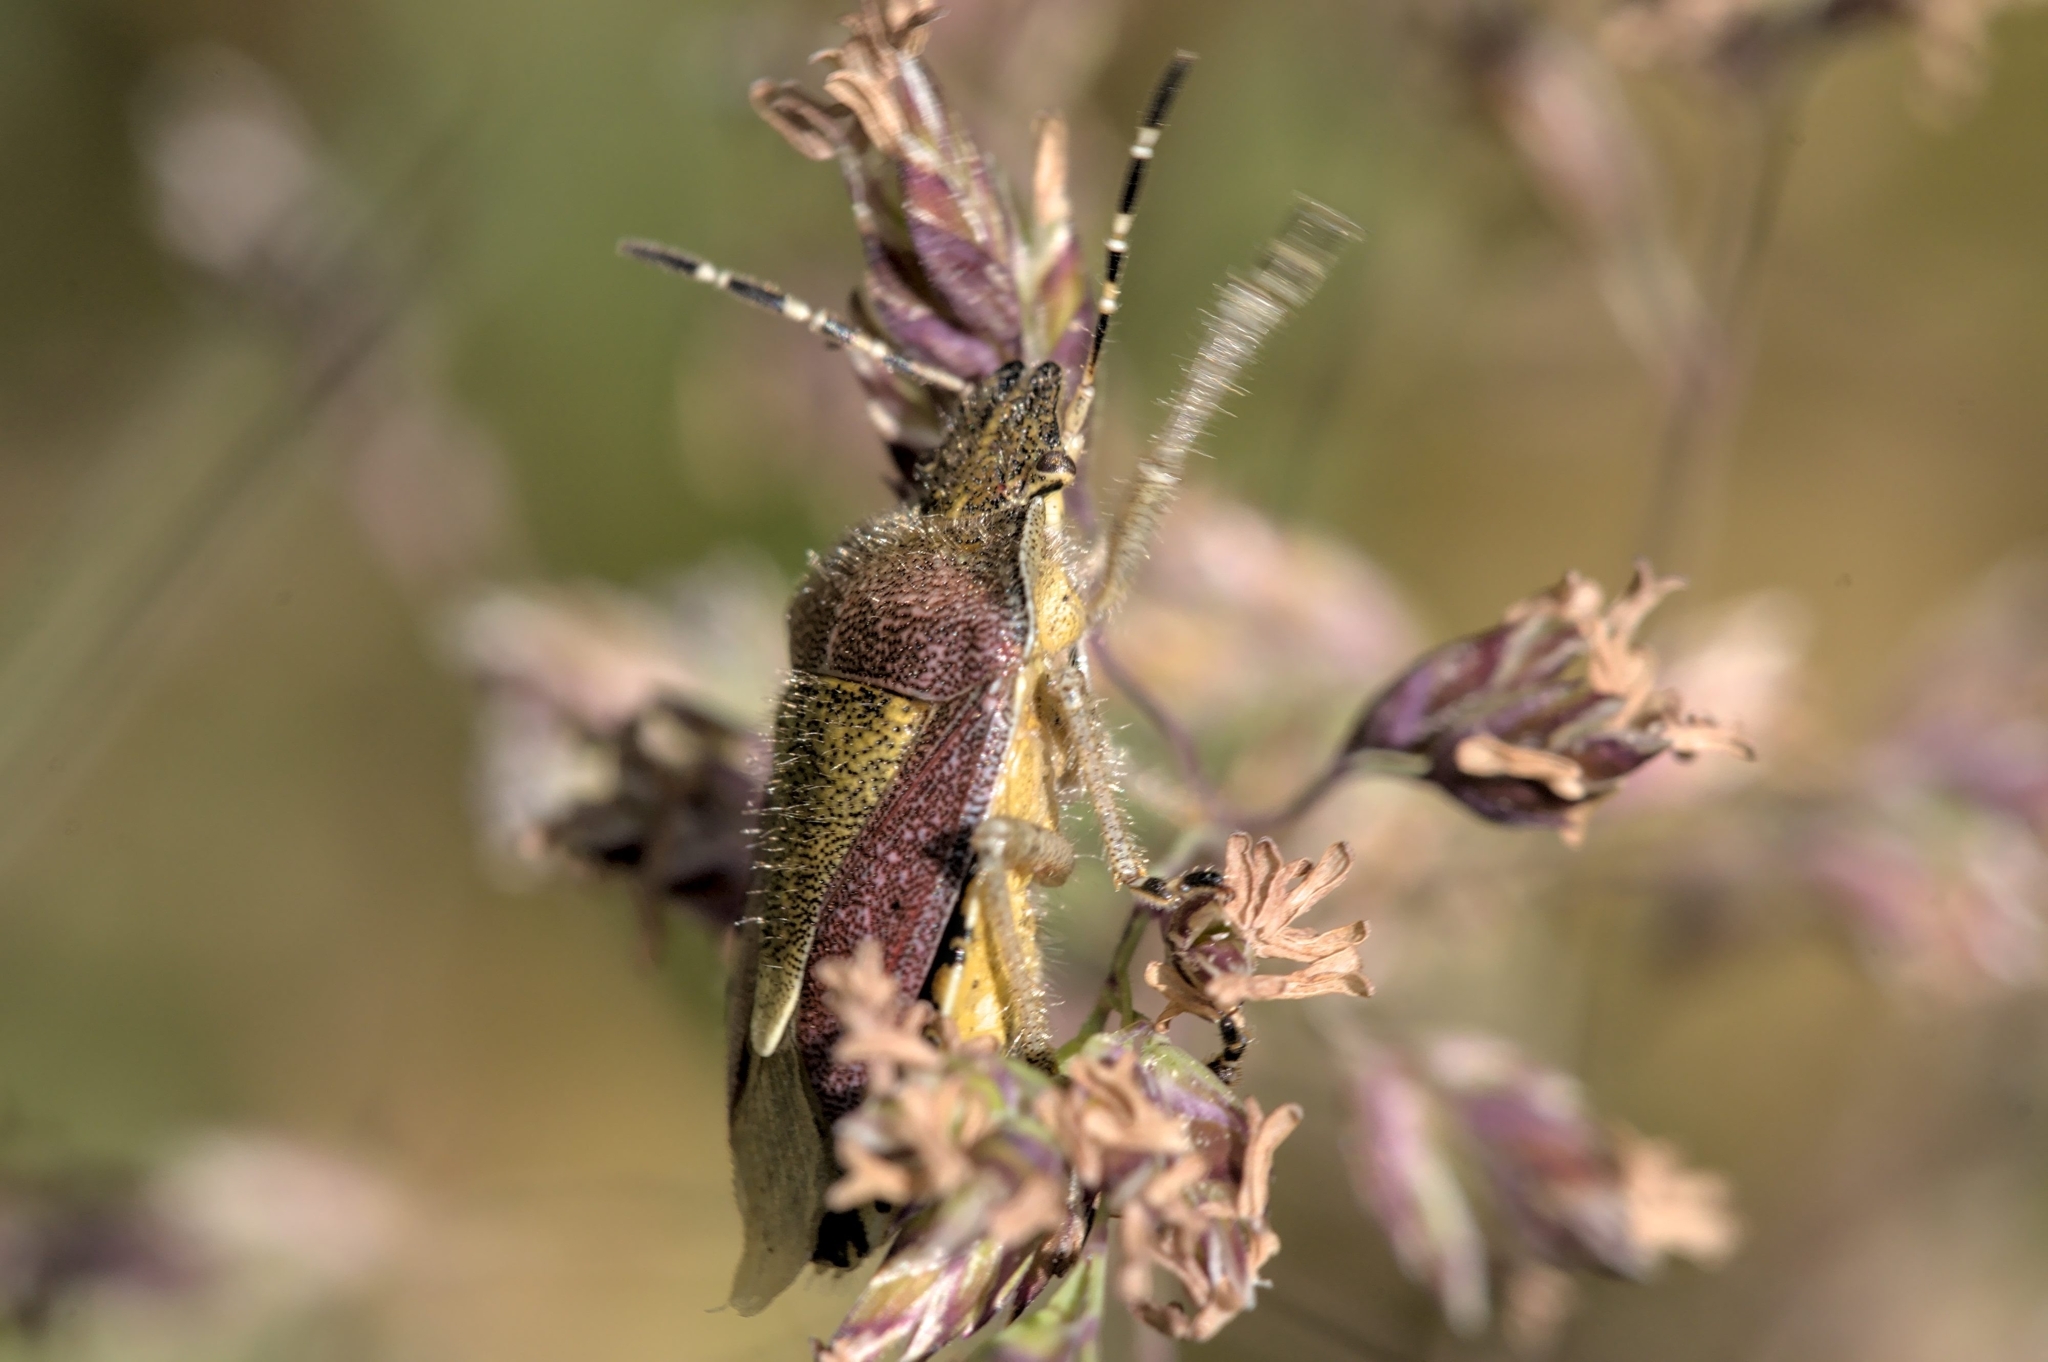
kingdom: Animalia
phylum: Arthropoda
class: Insecta
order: Hemiptera
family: Pentatomidae
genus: Dolycoris
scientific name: Dolycoris baccarum
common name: Sloe bug
